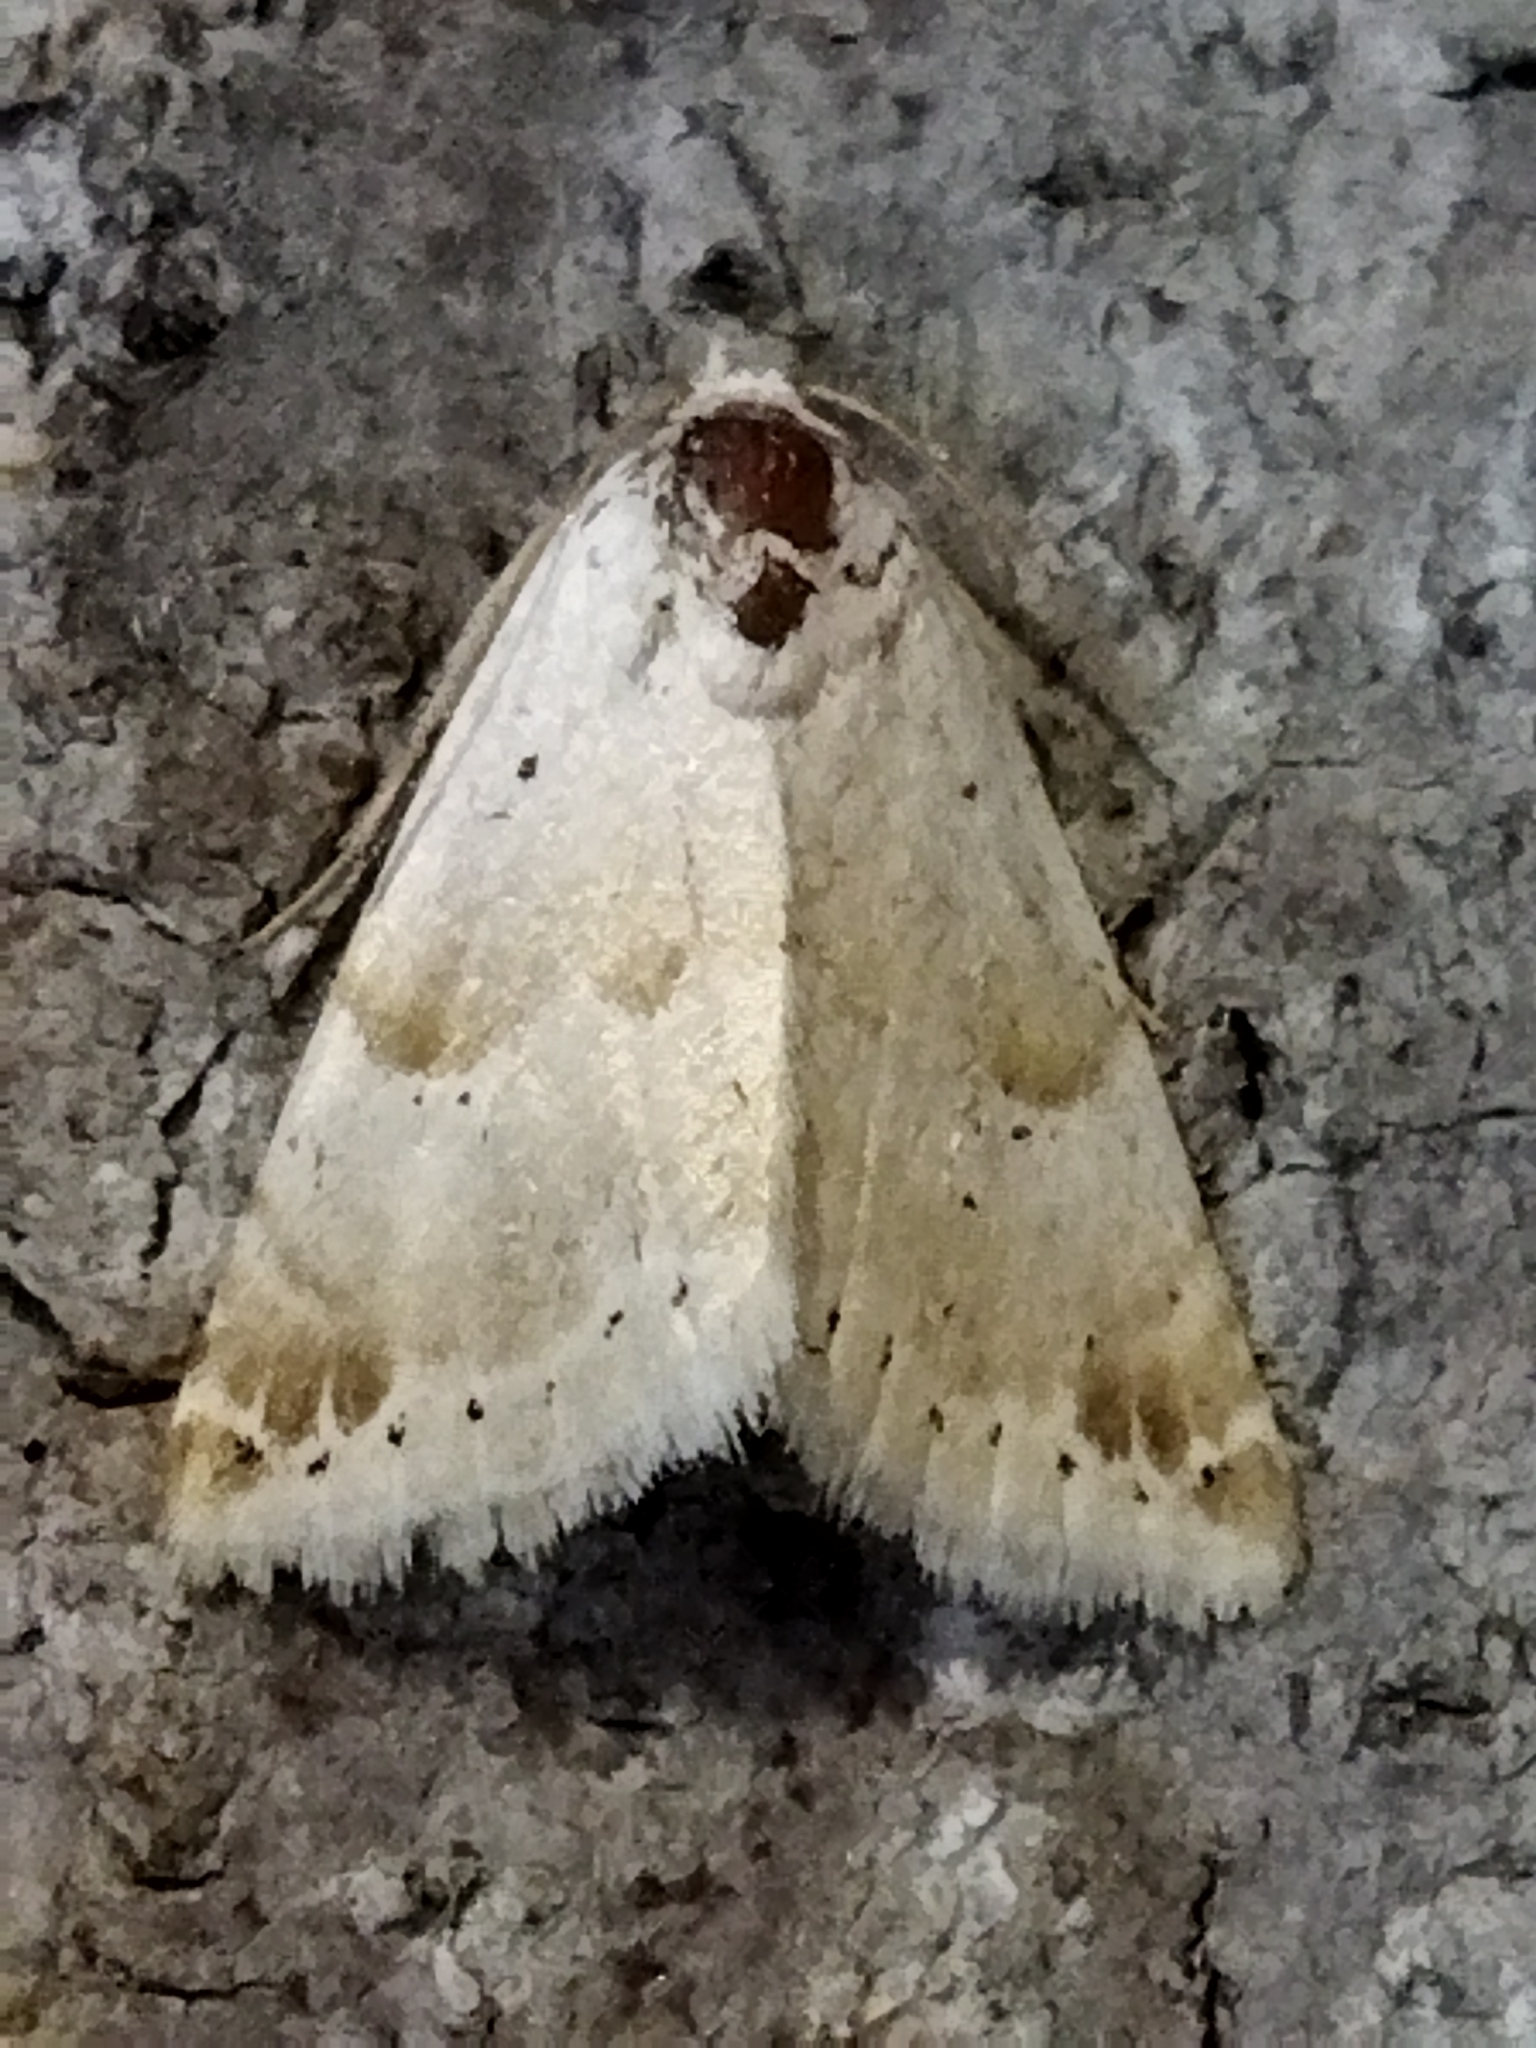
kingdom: Animalia
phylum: Arthropoda
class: Insecta
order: Lepidoptera
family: Noctuidae
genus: Eublemma
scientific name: Eublemma amoena
